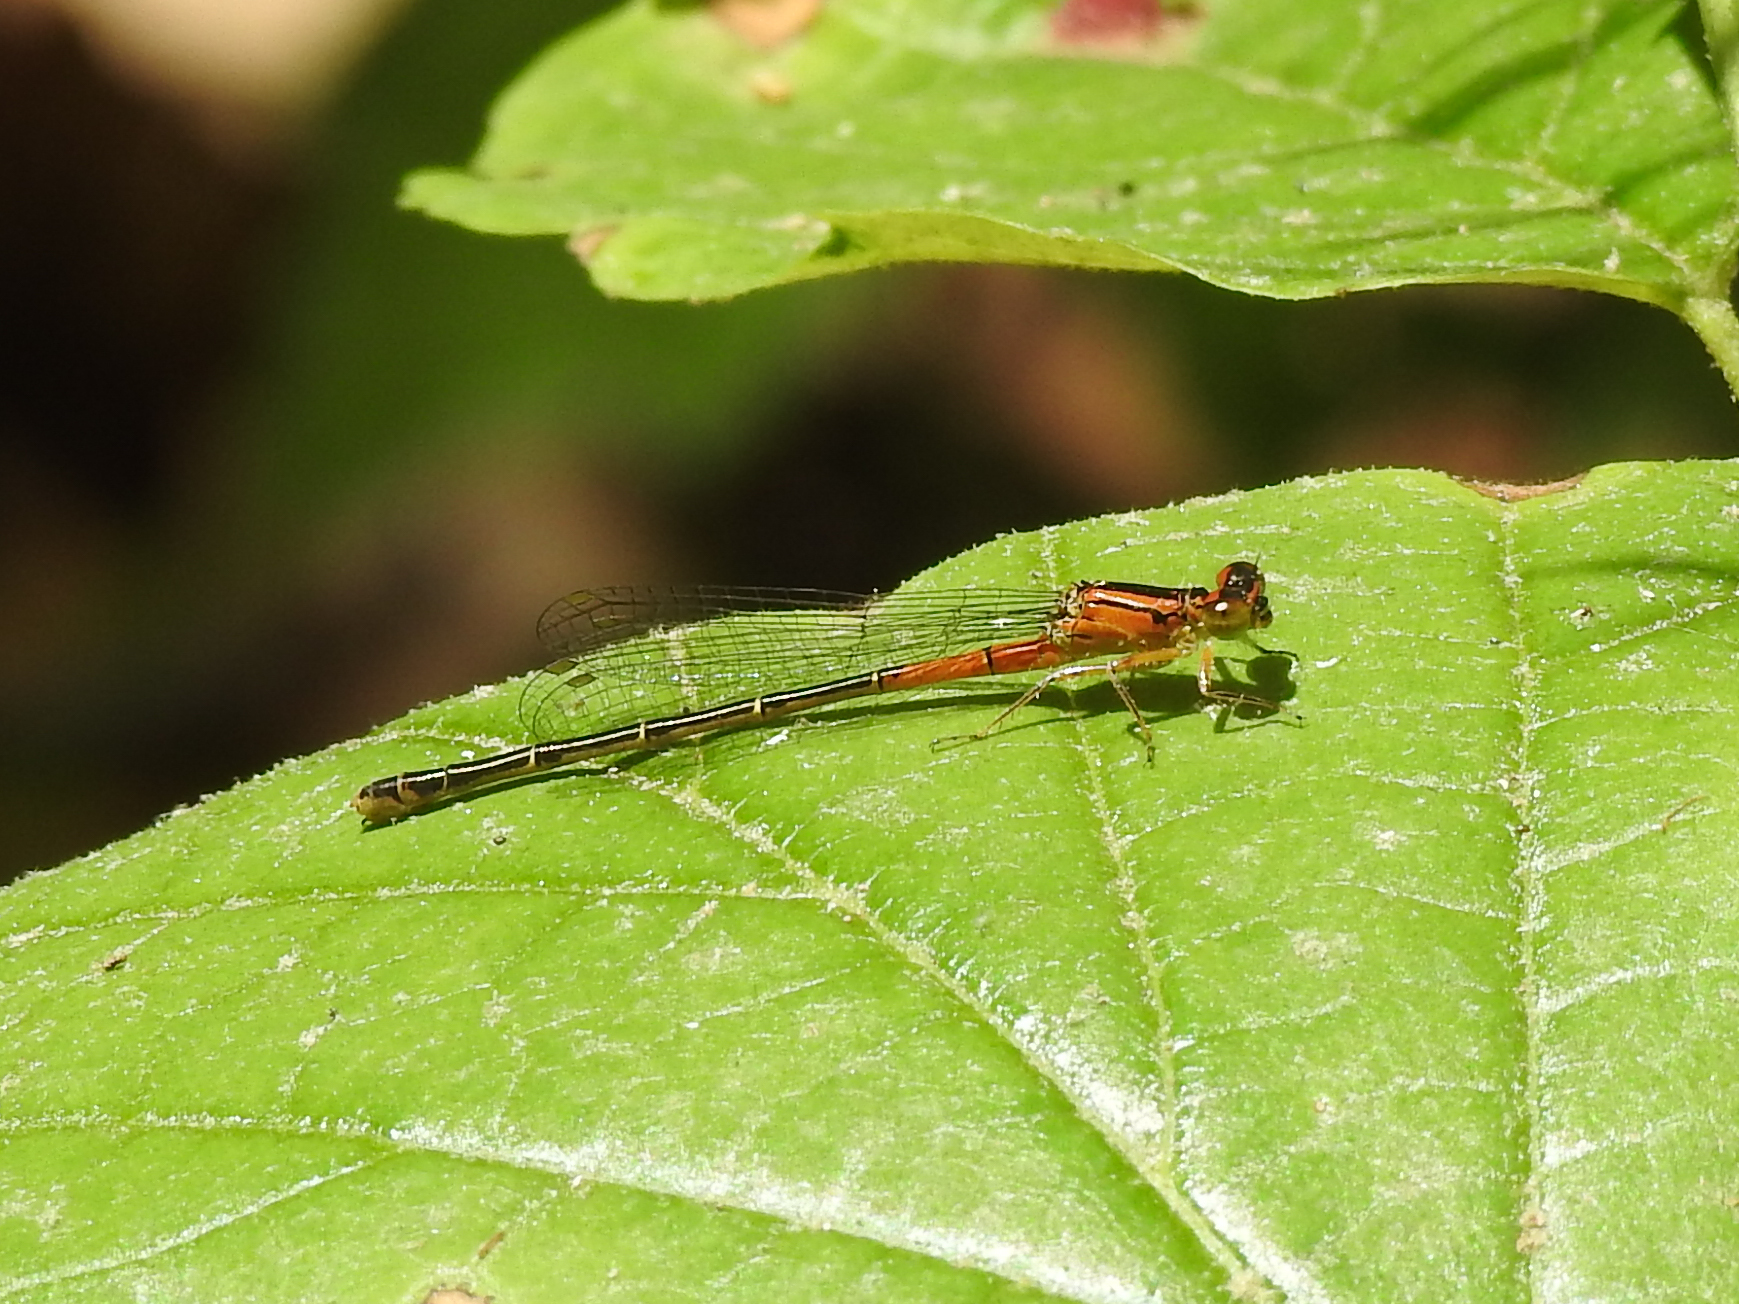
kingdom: Animalia
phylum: Arthropoda
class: Insecta
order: Odonata
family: Coenagrionidae
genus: Ischnura
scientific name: Ischnura verticalis
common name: Eastern forktail
